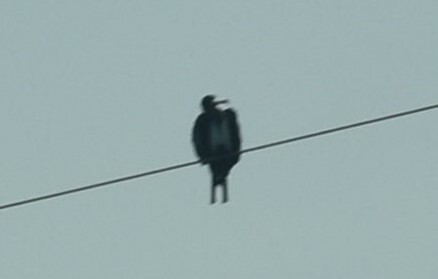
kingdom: Animalia
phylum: Chordata
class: Aves
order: Suliformes
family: Fregatidae
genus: Fregata
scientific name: Fregata magnificens
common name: Magnificent frigatebird
